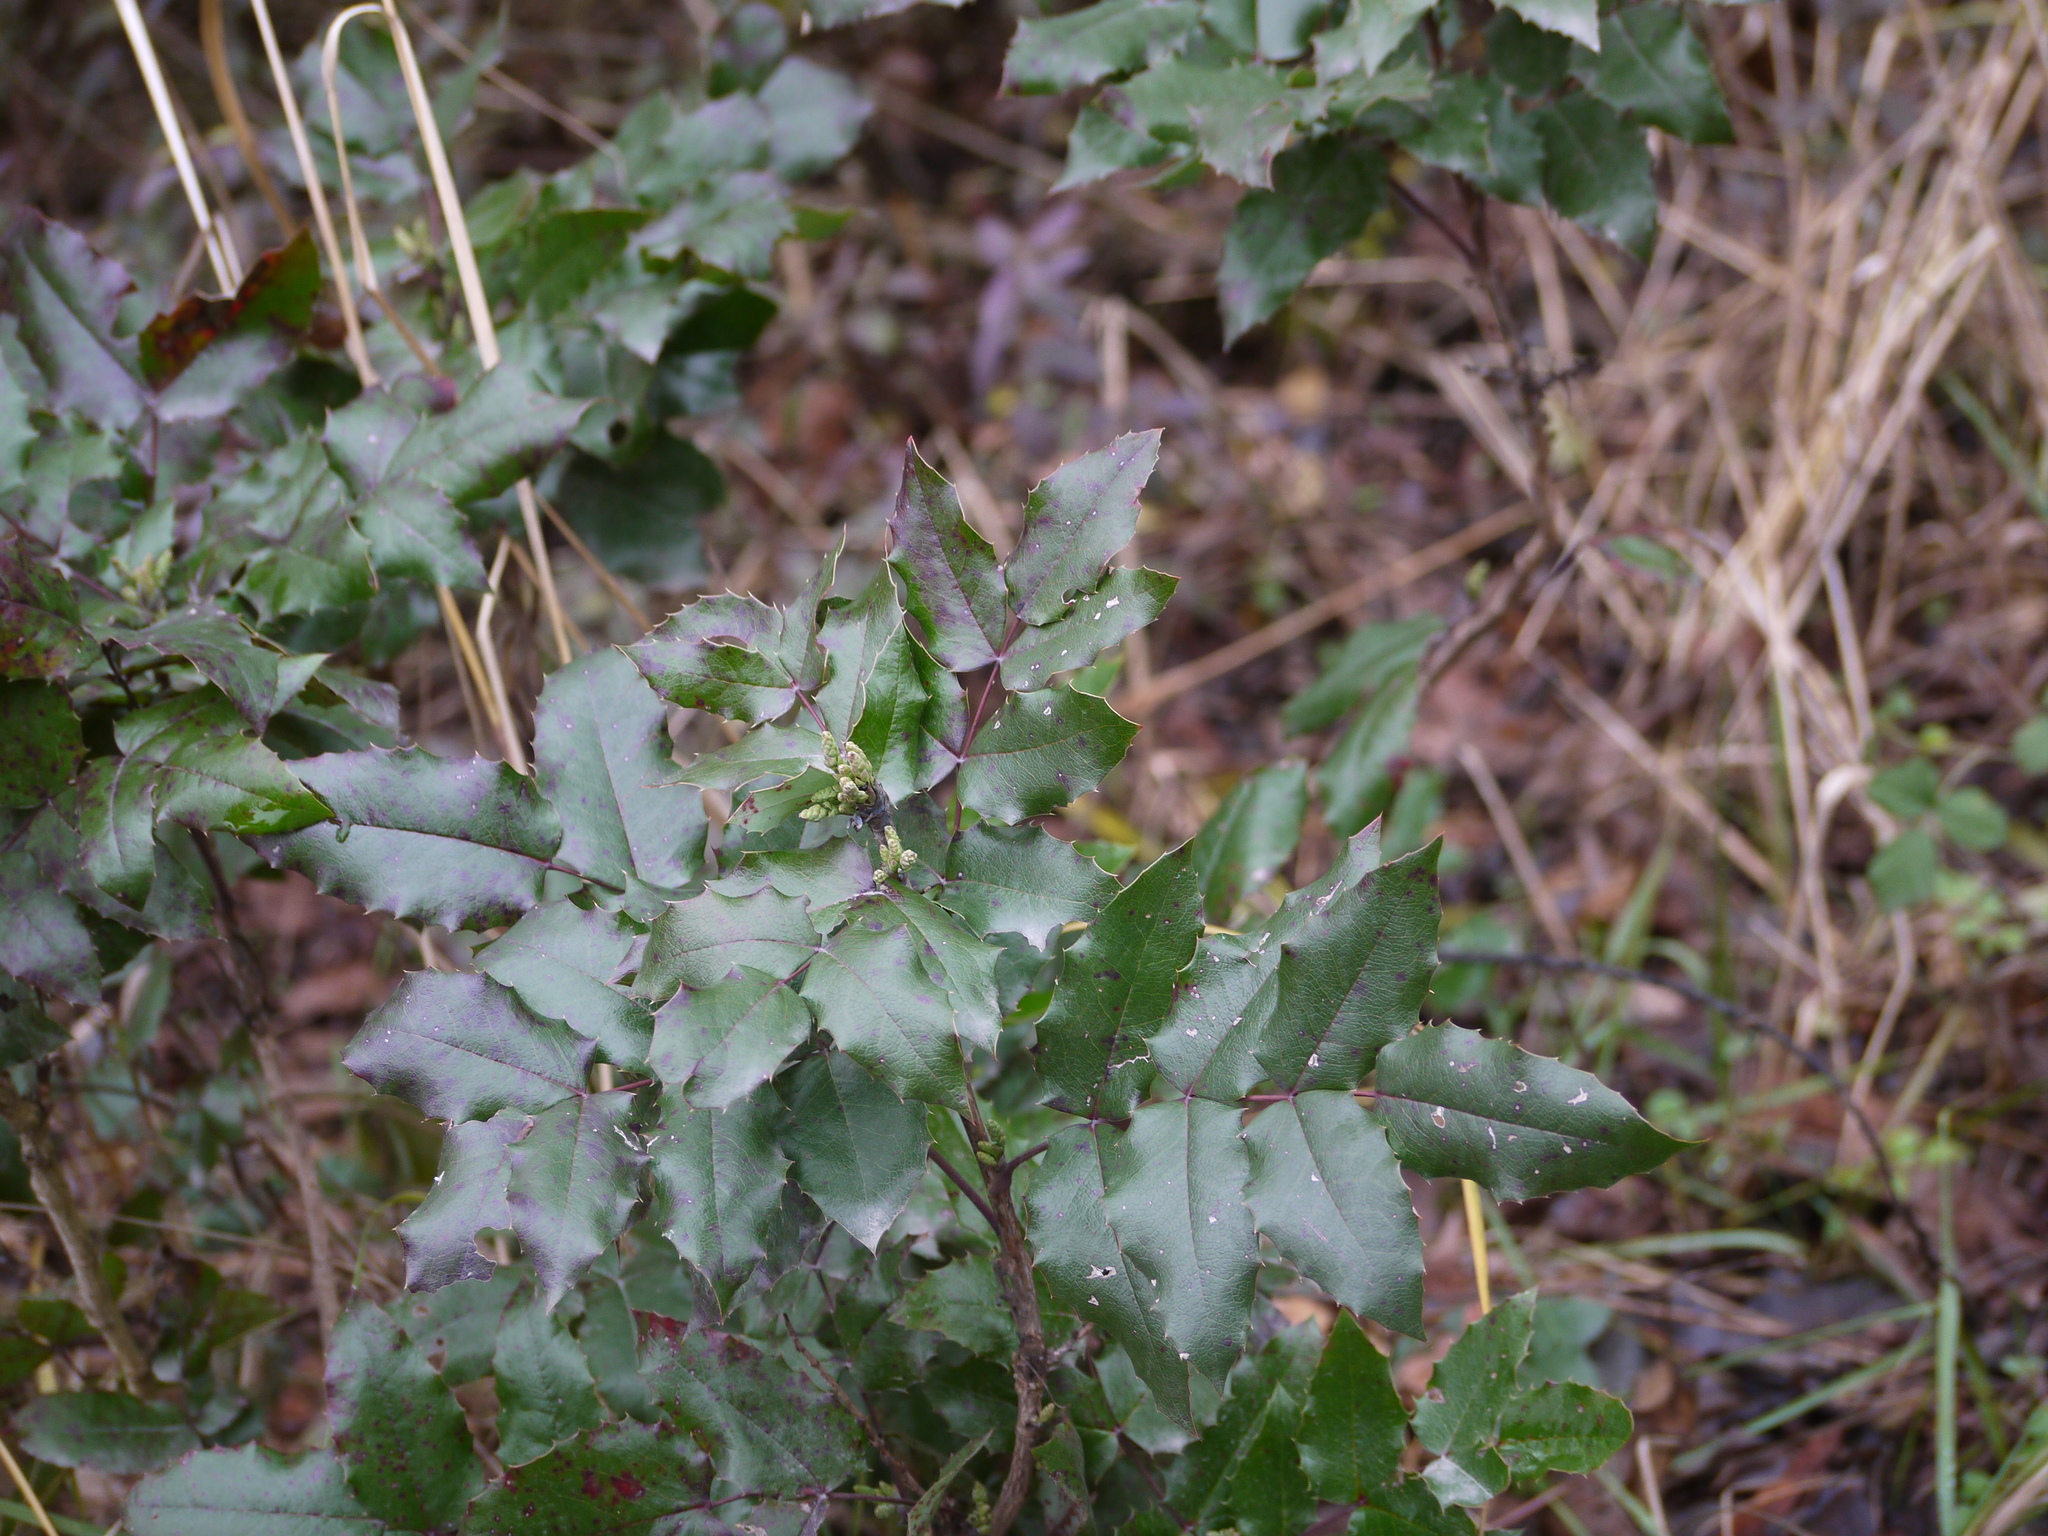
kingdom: Plantae
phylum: Tracheophyta
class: Magnoliopsida
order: Ranunculales
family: Berberidaceae
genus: Mahonia
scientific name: Mahonia aquifolium
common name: Oregon-grape
